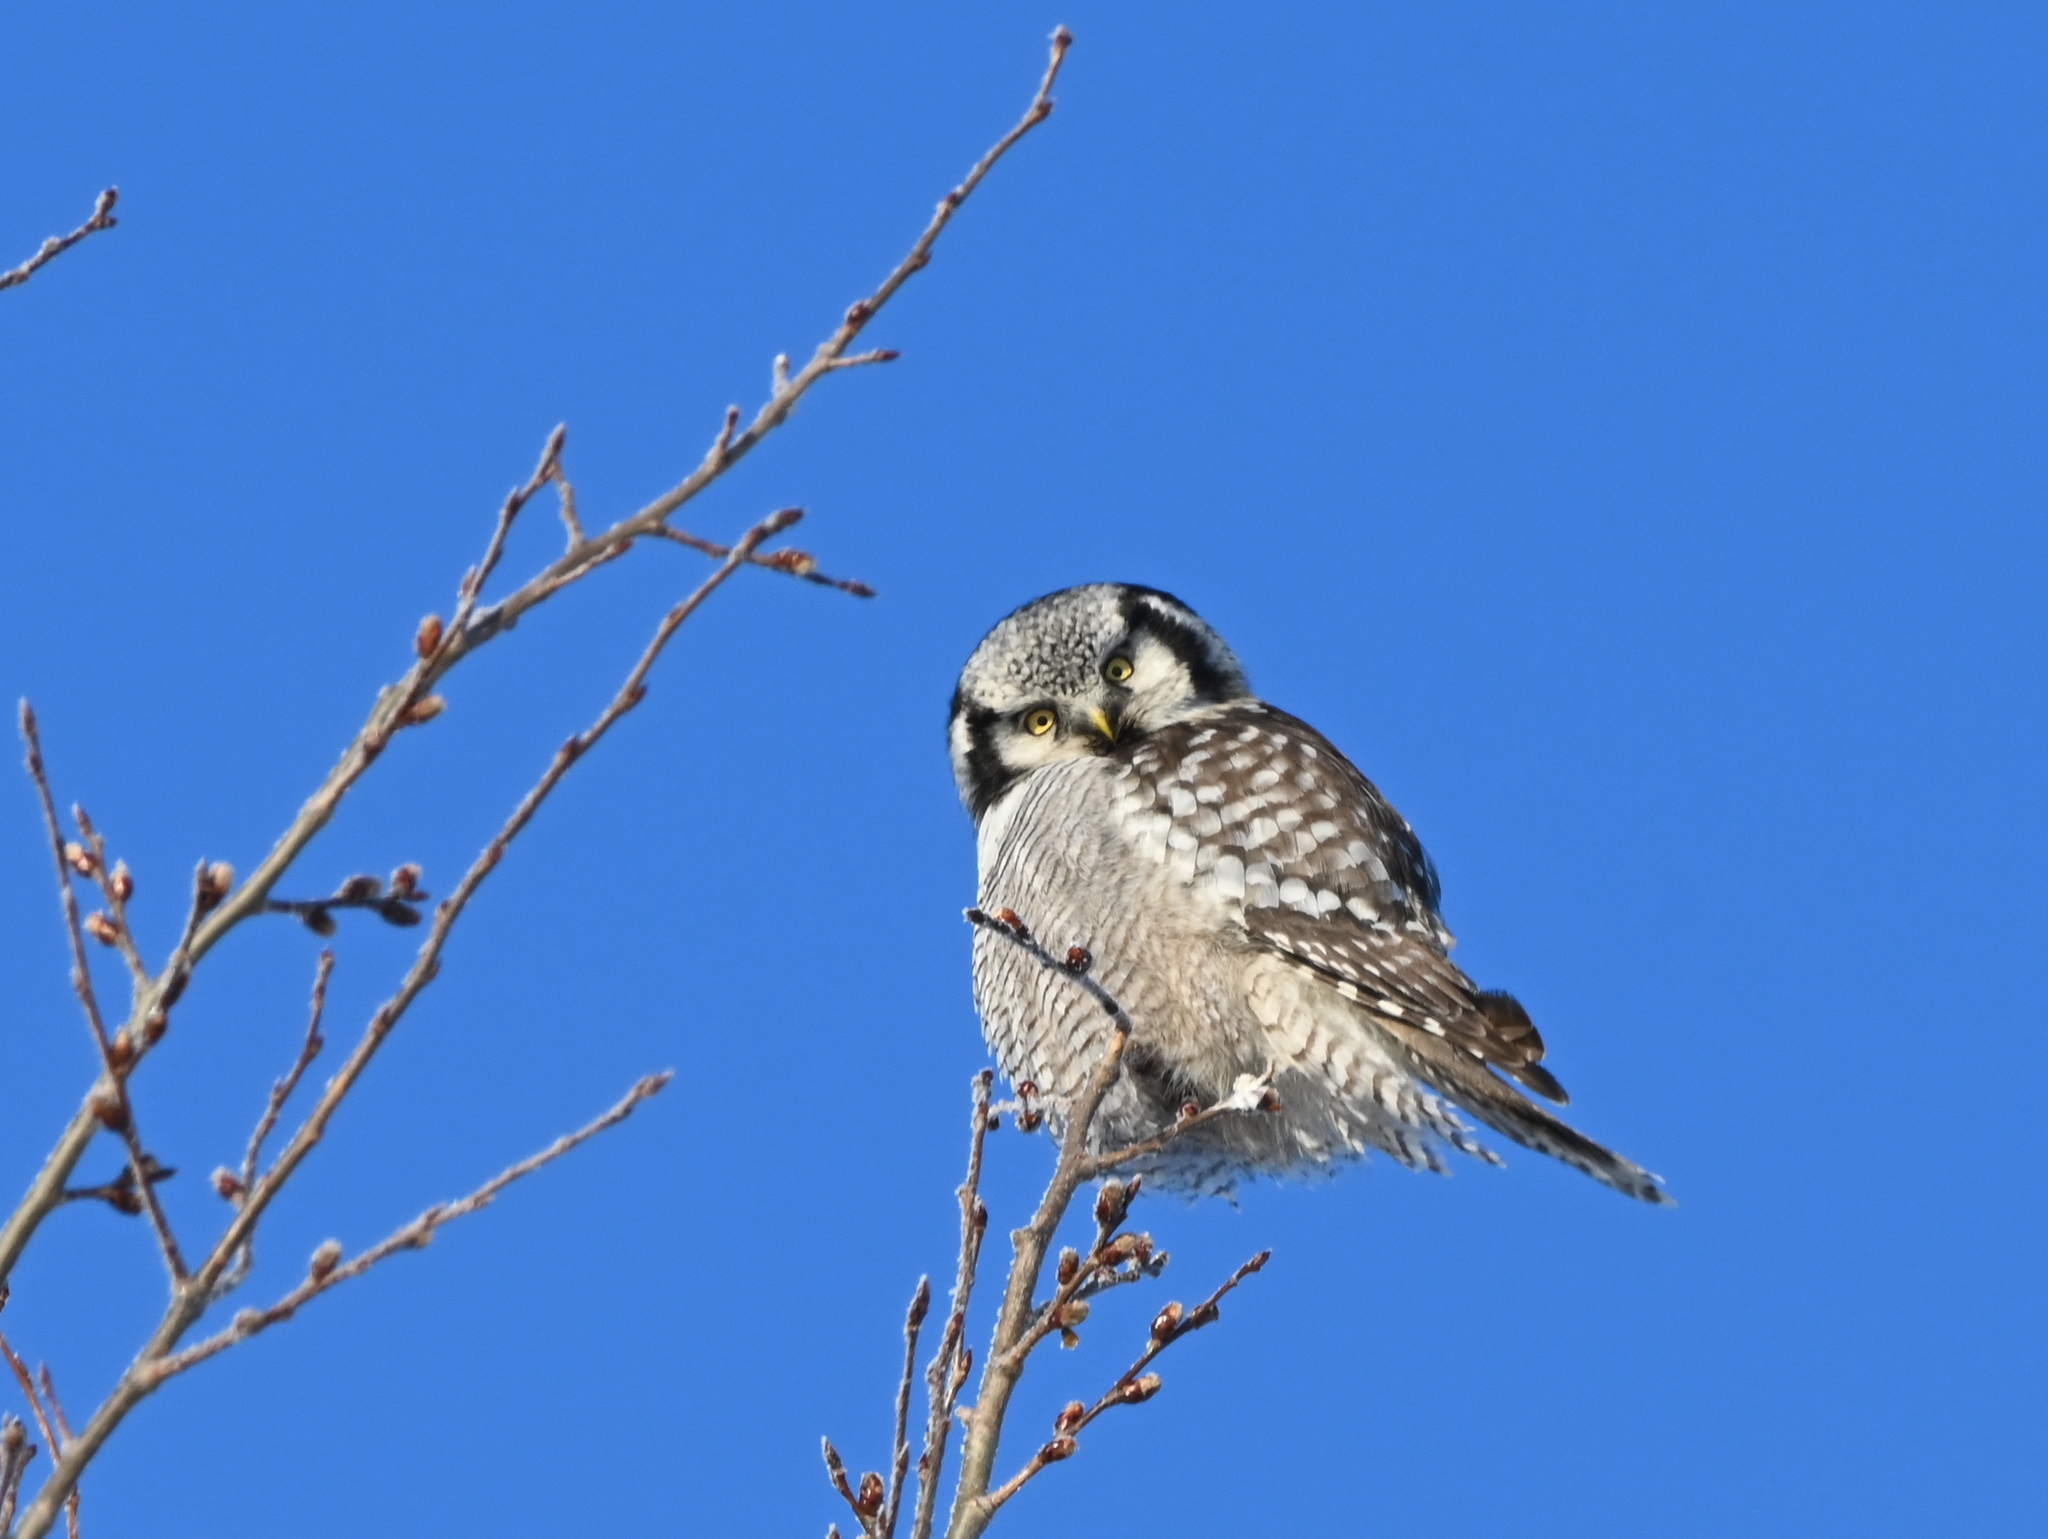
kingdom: Animalia
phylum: Chordata
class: Aves
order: Strigiformes
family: Strigidae
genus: Surnia
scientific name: Surnia ulula
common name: Northern hawk-owl
